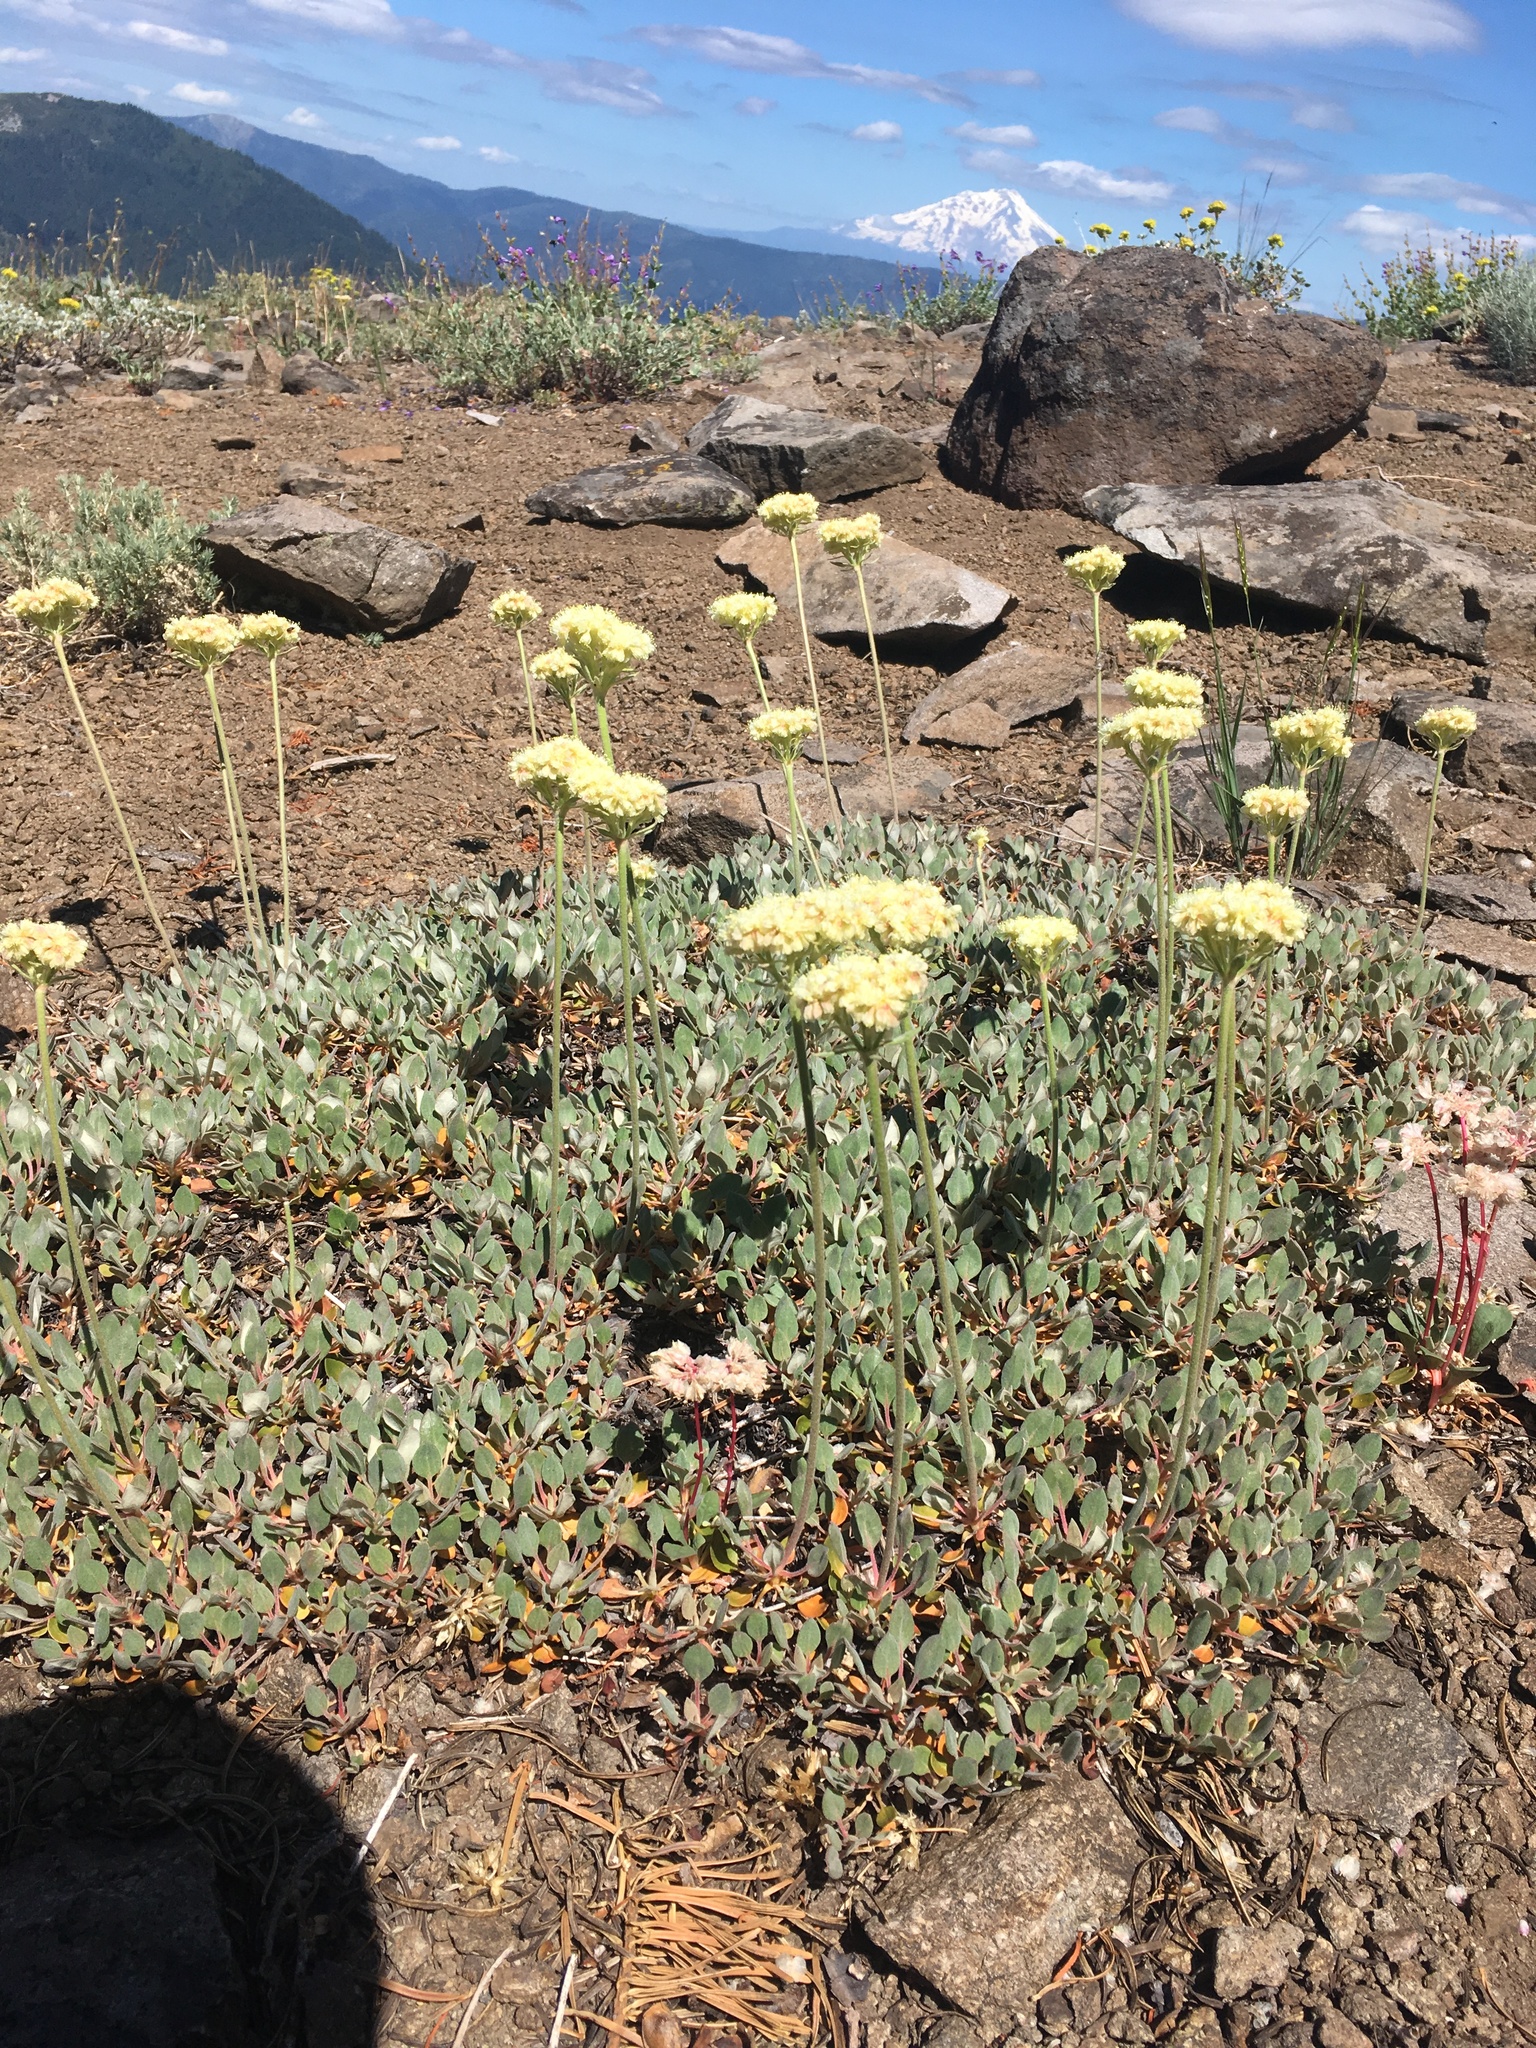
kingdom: Plantae
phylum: Tracheophyta
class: Magnoliopsida
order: Caryophyllales
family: Polygonaceae
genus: Eriogonum
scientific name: Eriogonum ursinum
